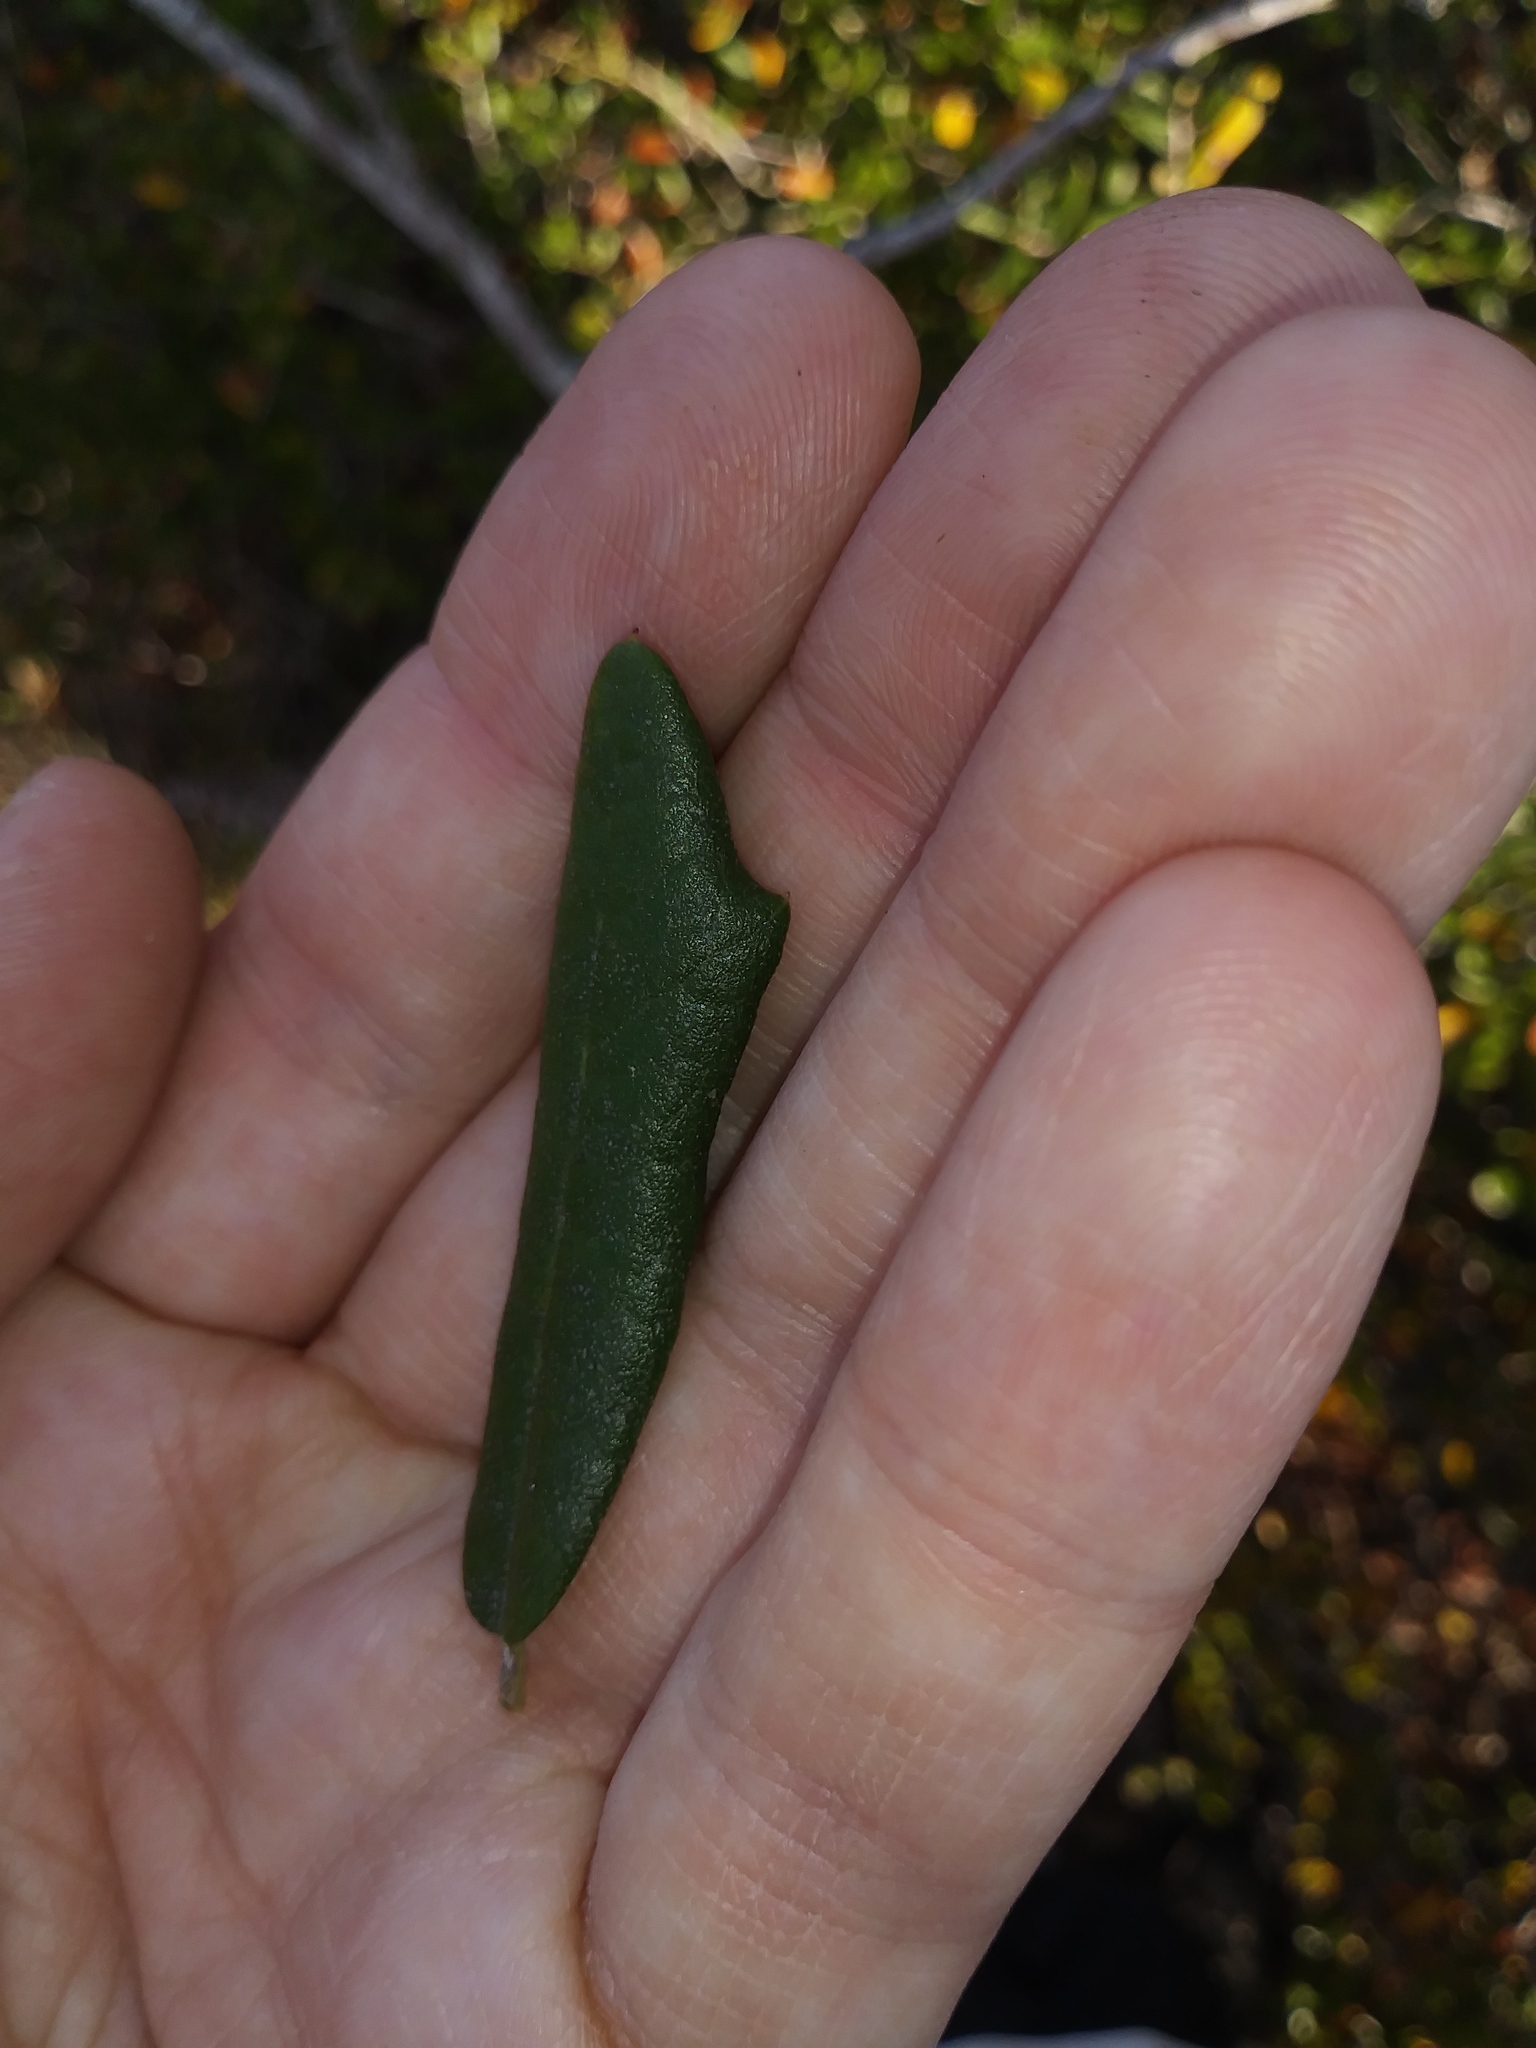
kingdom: Plantae
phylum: Tracheophyta
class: Magnoliopsida
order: Fagales
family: Fagaceae
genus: Quercus
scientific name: Quercus geminata
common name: Sand live oak
